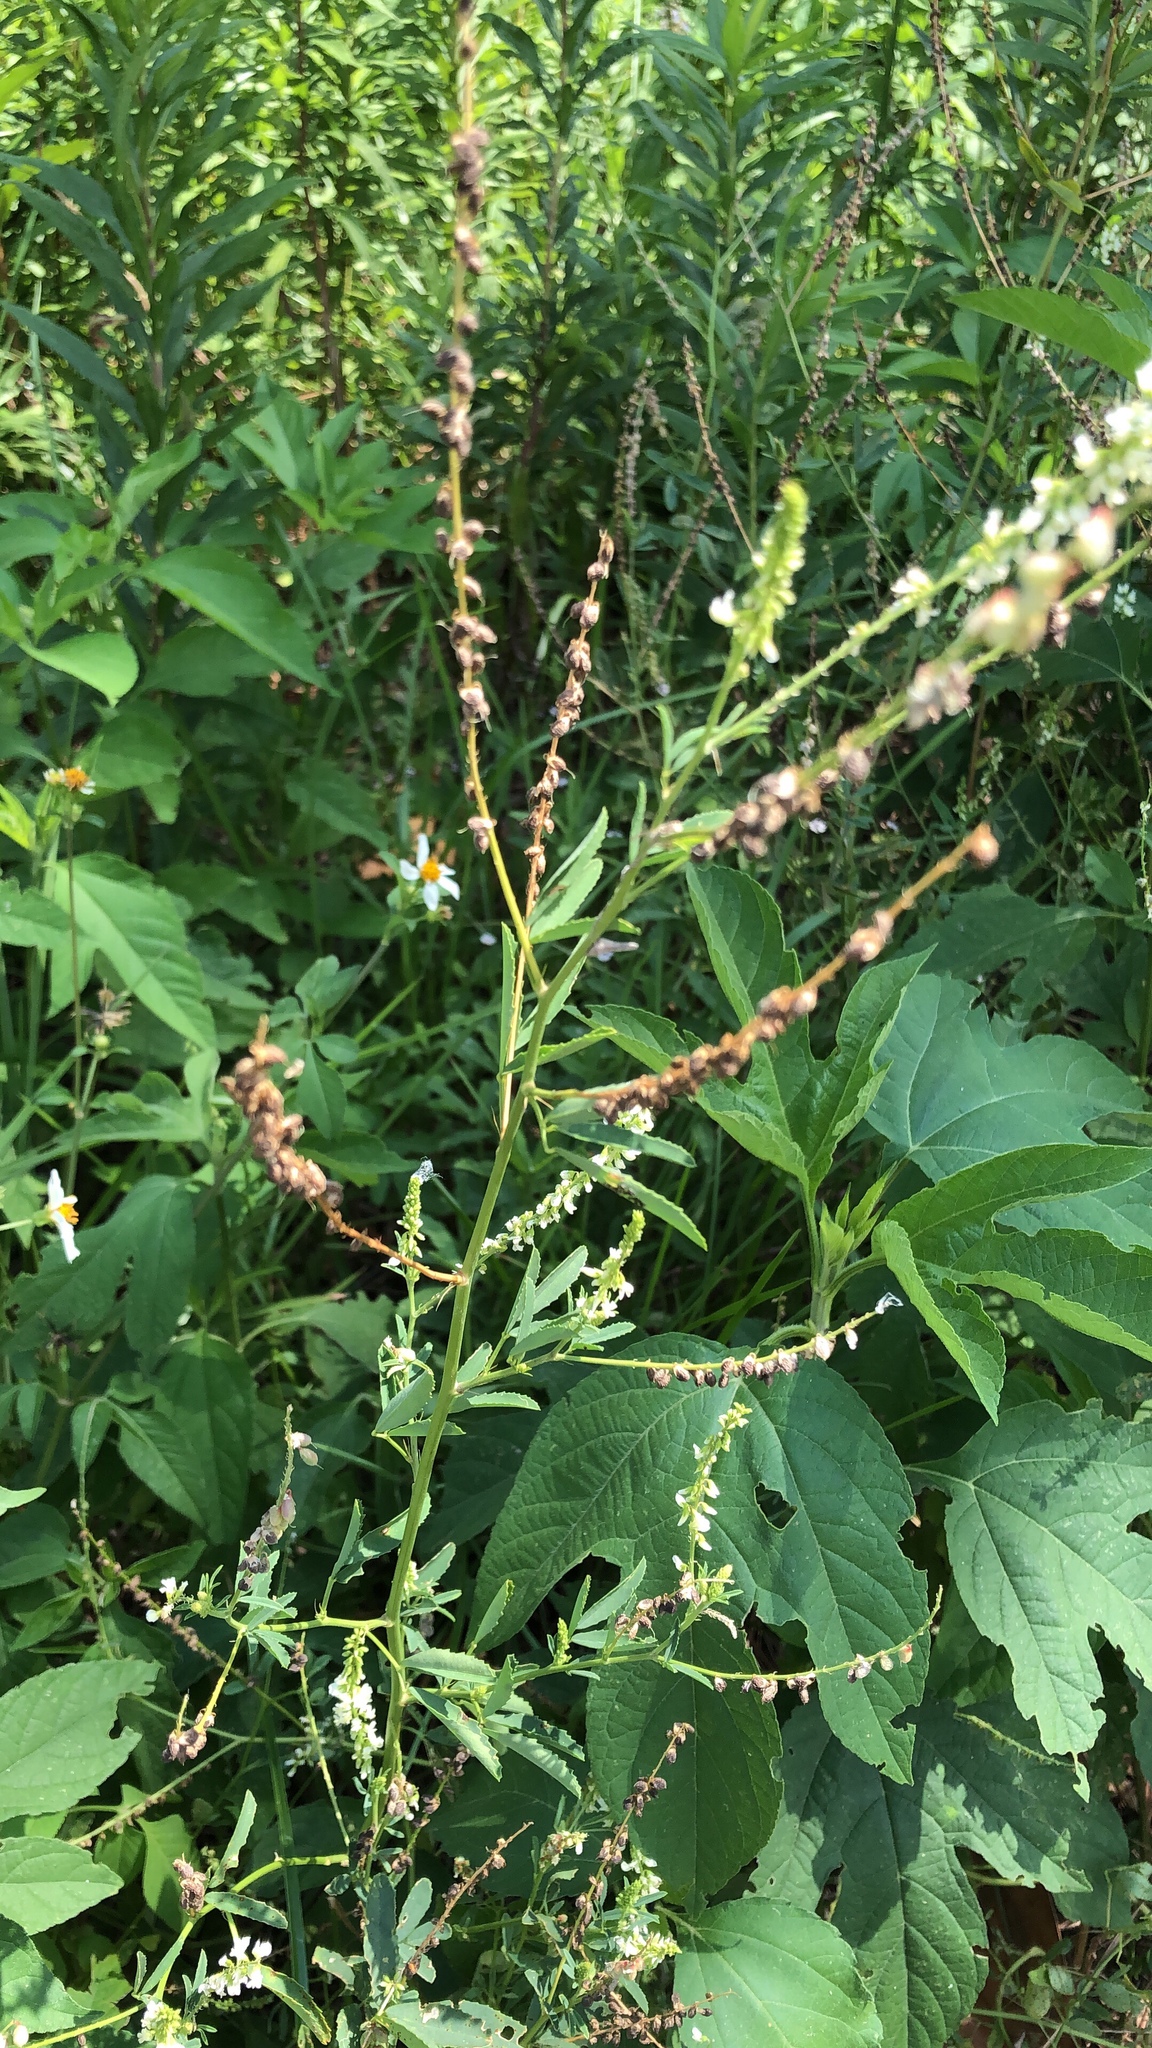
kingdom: Plantae
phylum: Tracheophyta
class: Magnoliopsida
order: Fabales
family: Fabaceae
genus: Melilotus
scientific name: Melilotus albus
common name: White melilot
